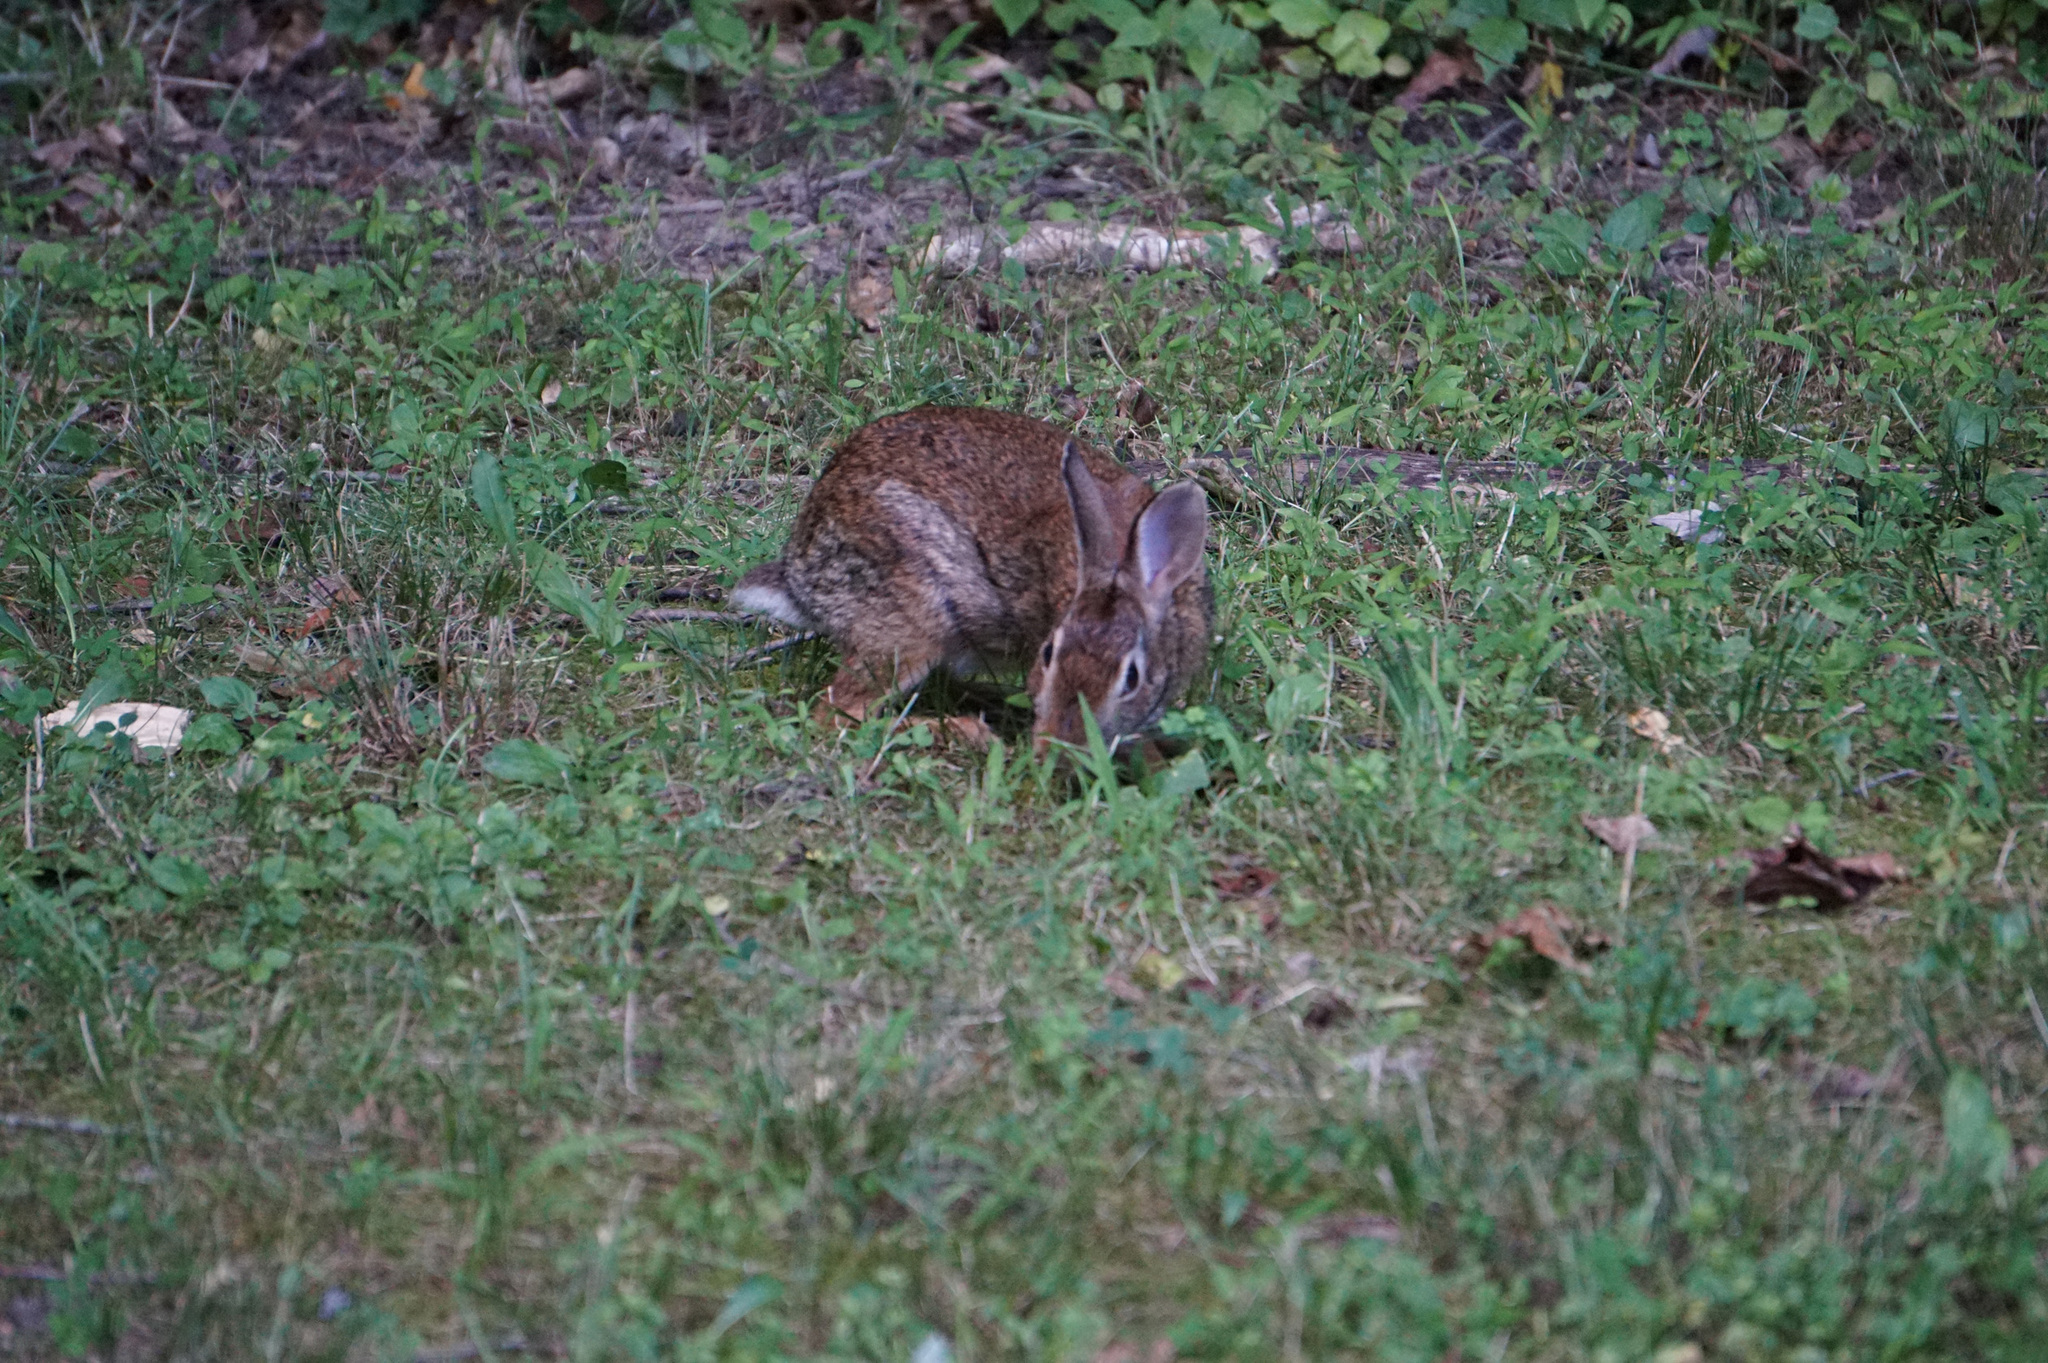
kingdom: Animalia
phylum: Chordata
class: Mammalia
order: Lagomorpha
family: Leporidae
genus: Sylvilagus
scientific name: Sylvilagus floridanus
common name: Eastern cottontail
